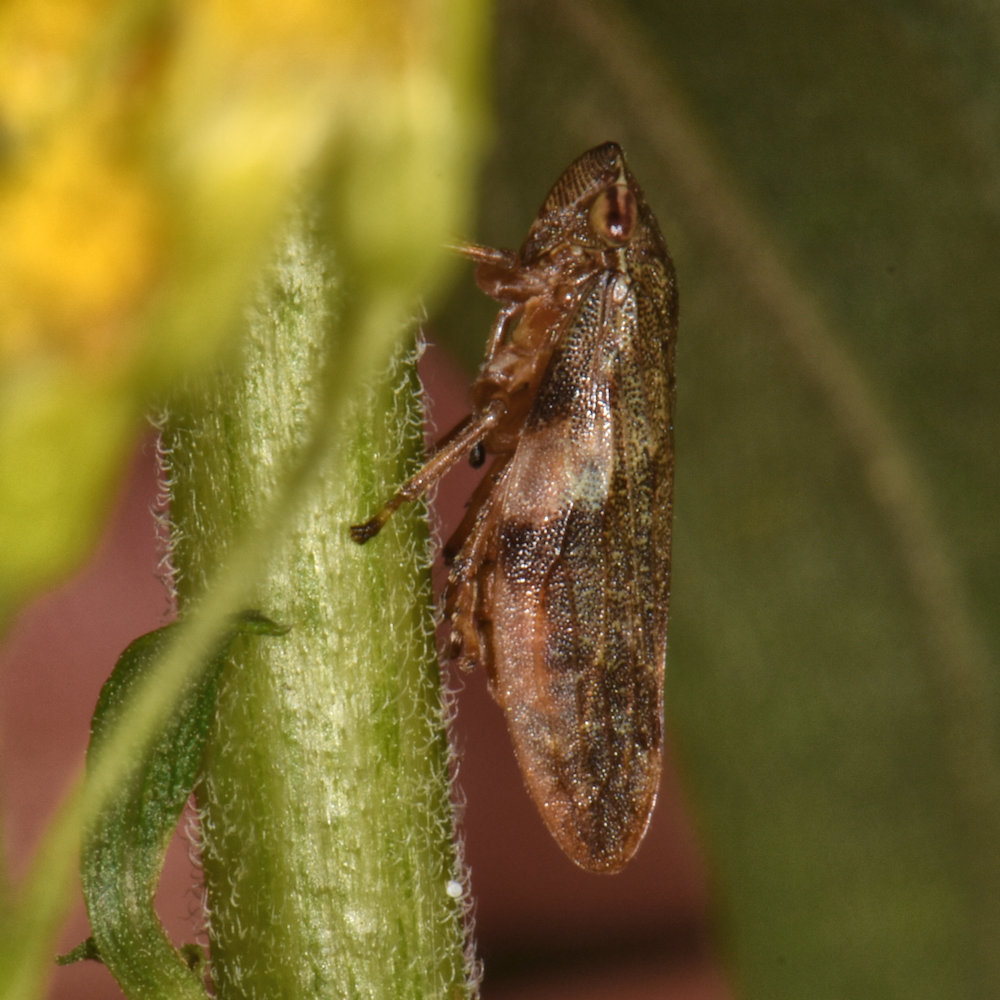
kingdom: Animalia
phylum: Arthropoda
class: Insecta
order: Hemiptera
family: Aphrophoridae
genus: Philaenus
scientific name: Philaenus spumarius
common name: Meadow spittlebug
